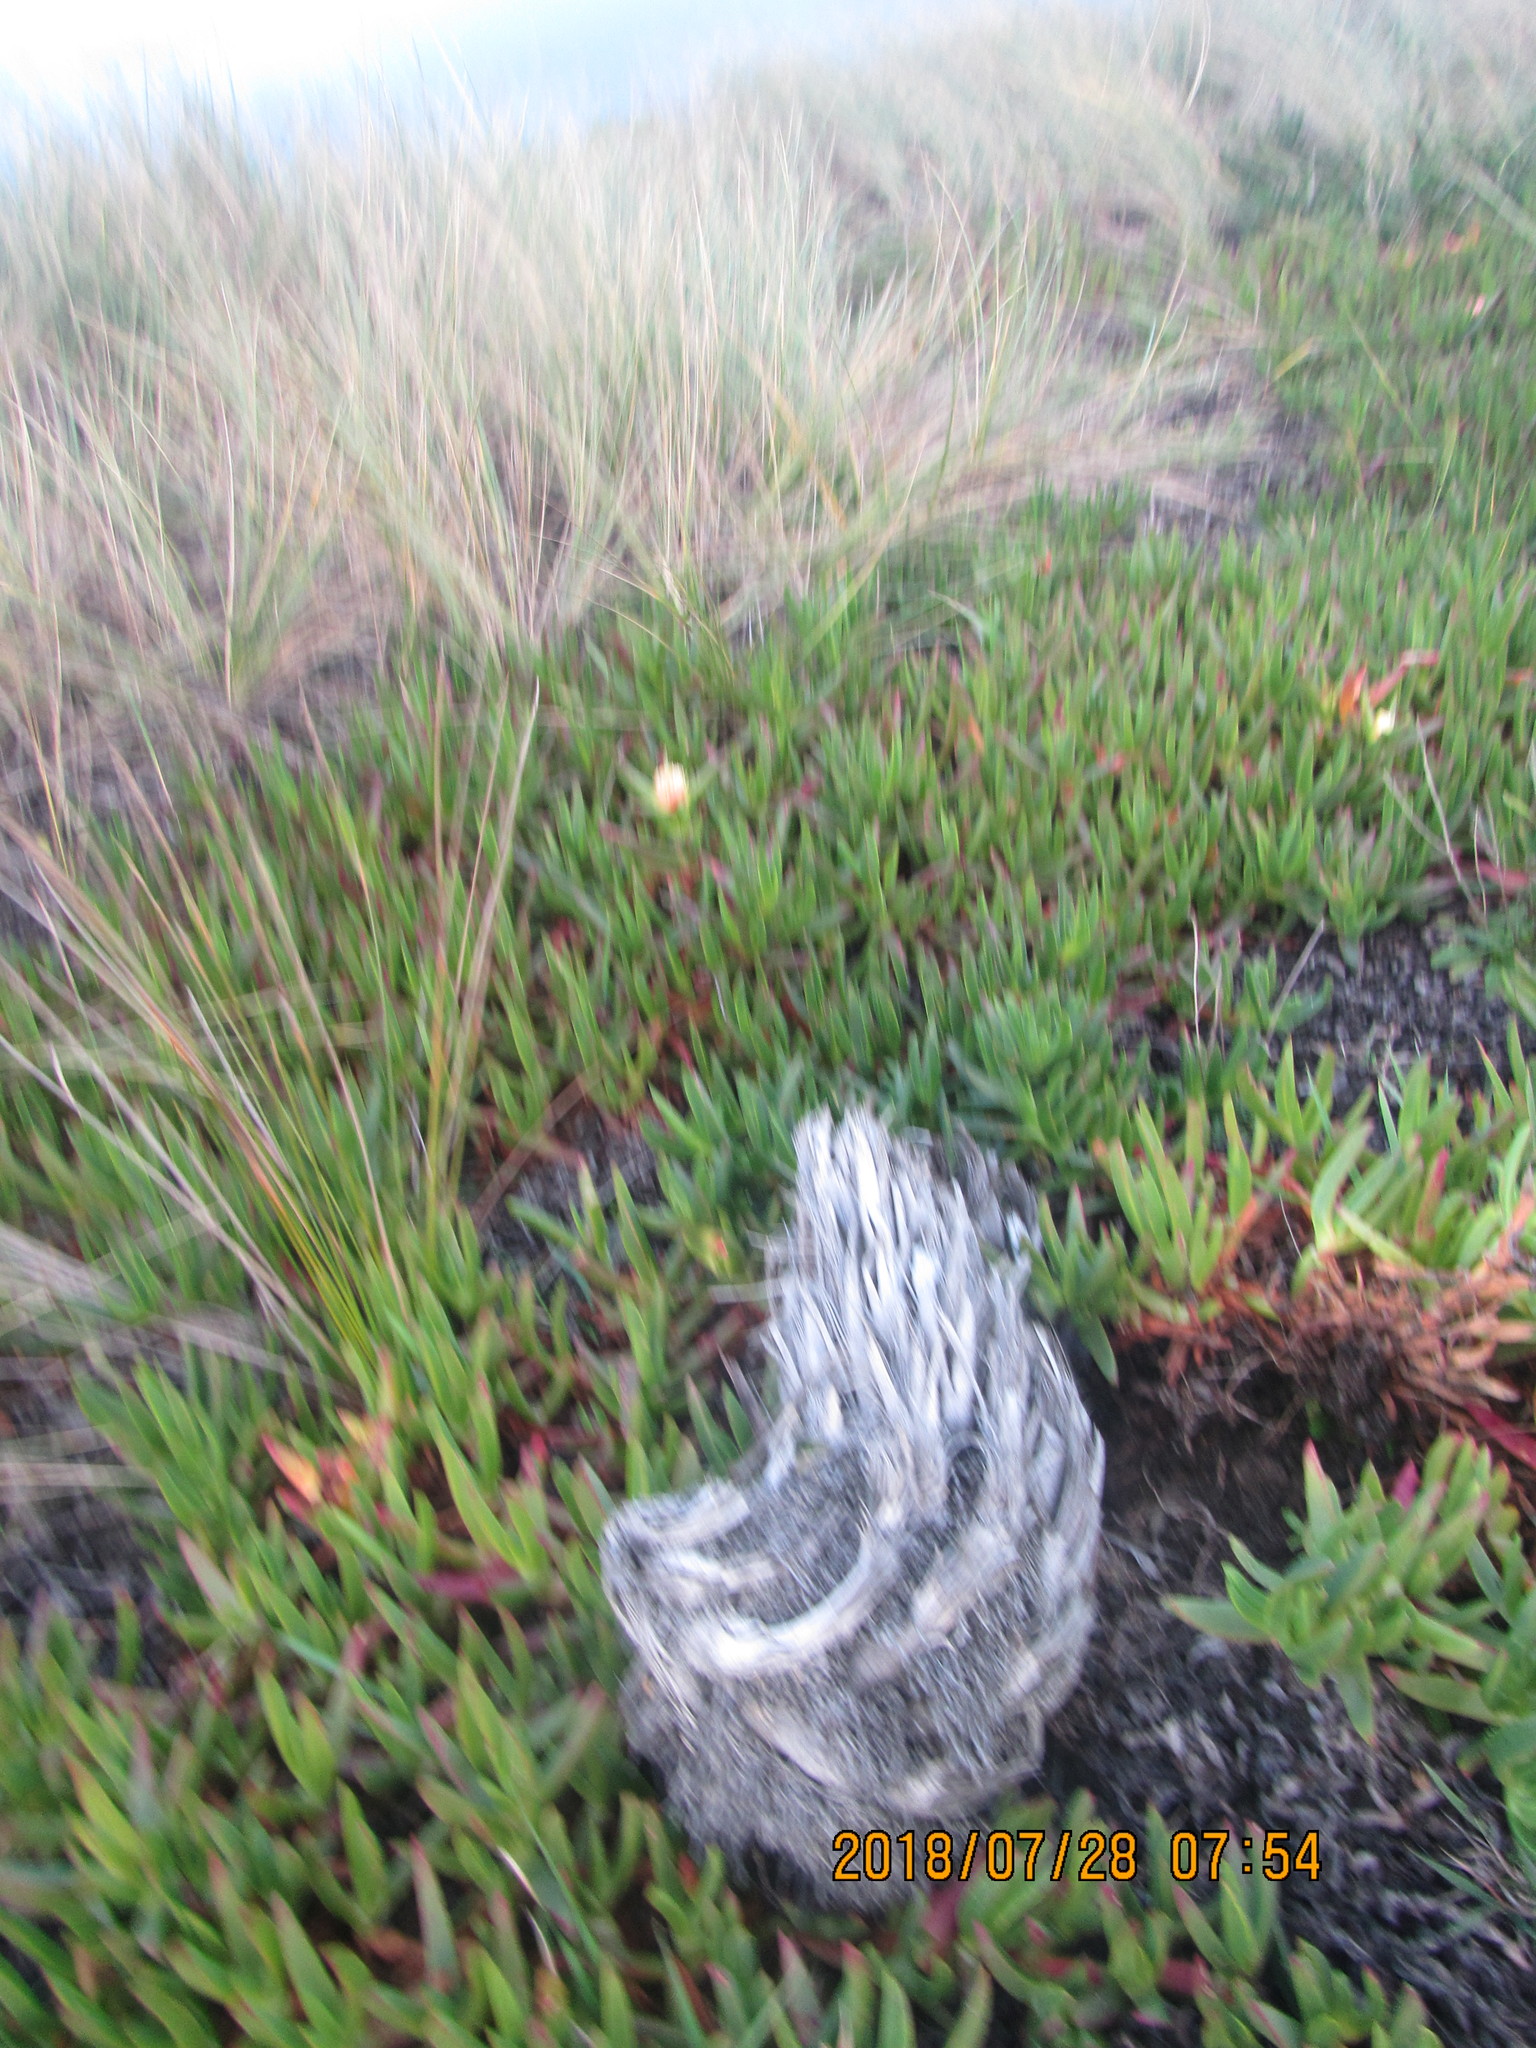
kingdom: Animalia
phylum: Arthropoda
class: Arachnida
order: Opiliones
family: Phalangiidae
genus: Phalangium
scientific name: Phalangium opilio
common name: Daddy longleg
